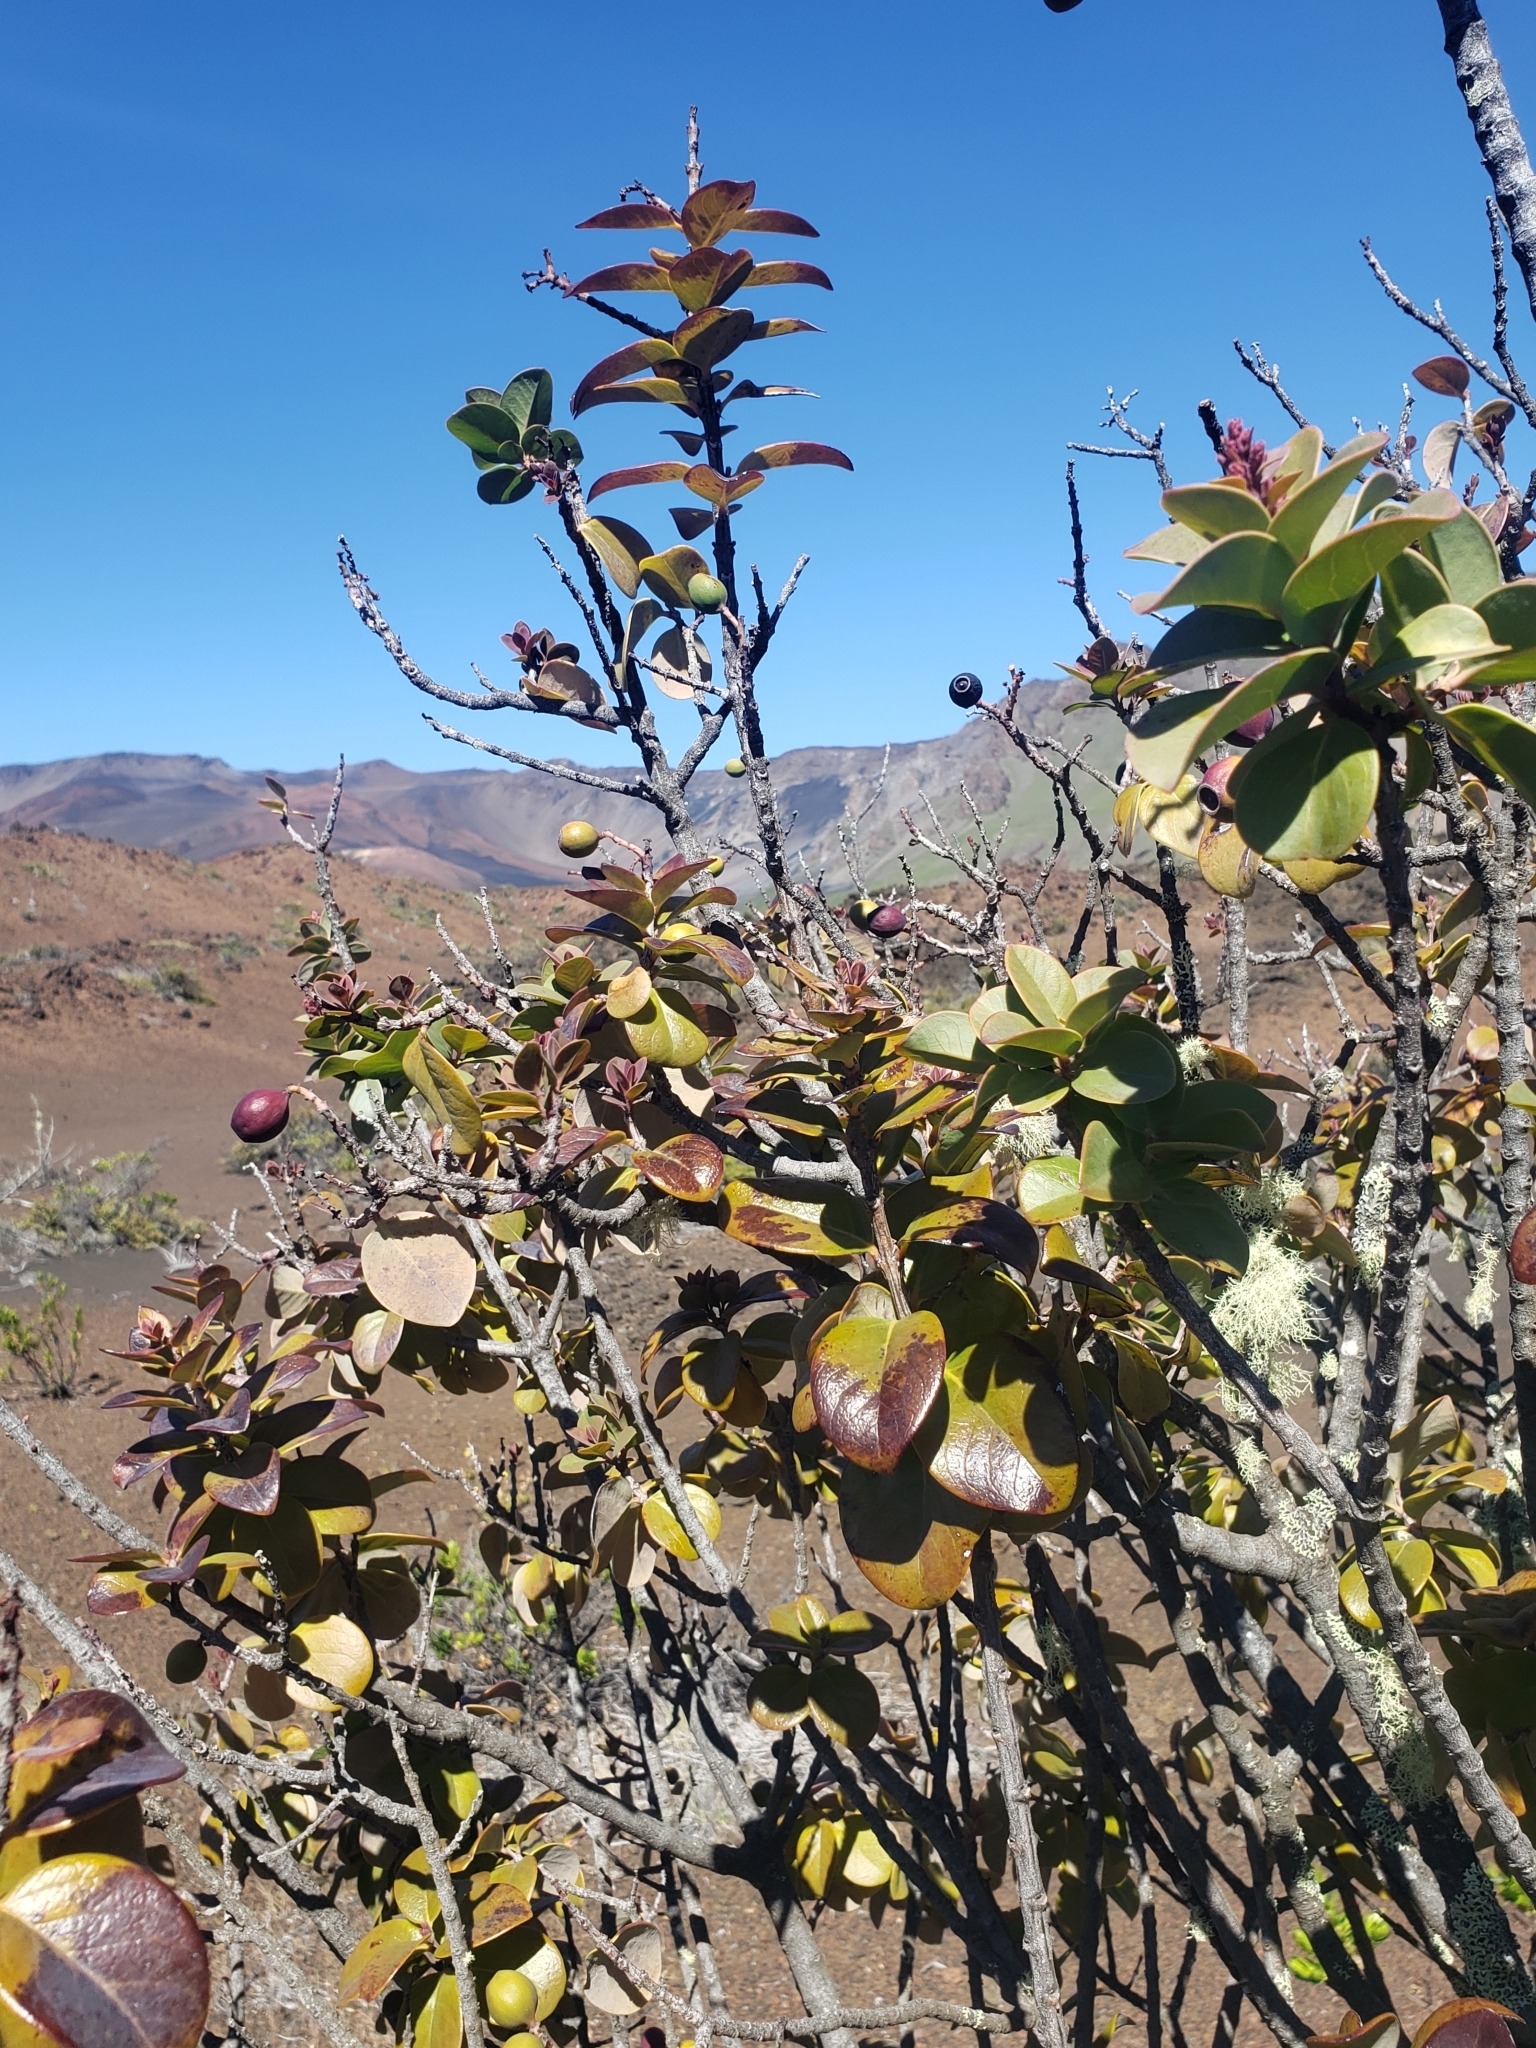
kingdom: Plantae
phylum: Tracheophyta
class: Magnoliopsida
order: Santalales
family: Santalaceae
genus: Santalum
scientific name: Santalum haleakalae
